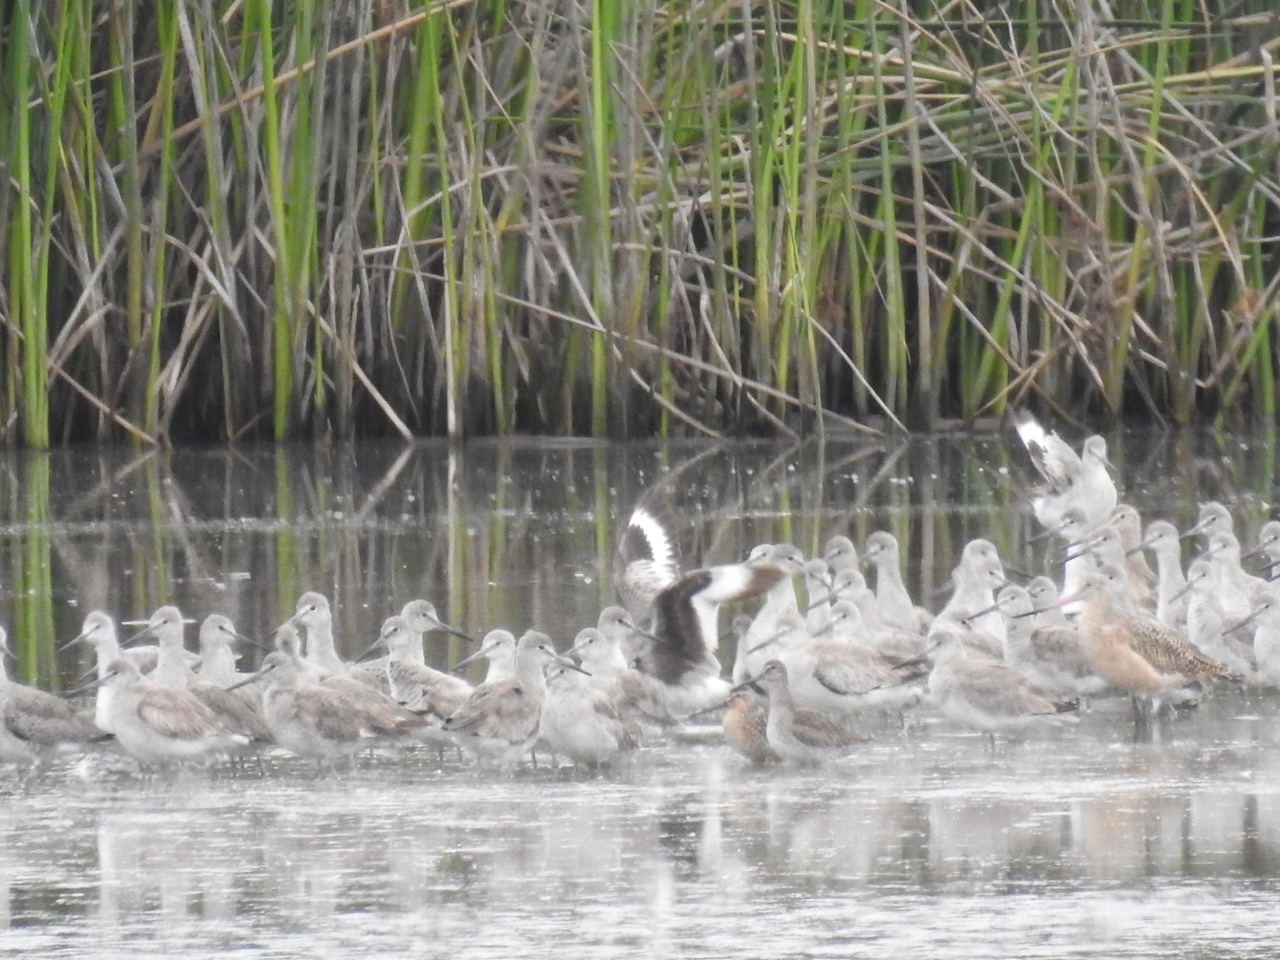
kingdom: Animalia
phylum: Chordata
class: Aves
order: Charadriiformes
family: Scolopacidae
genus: Tringa
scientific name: Tringa semipalmata
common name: Willet
